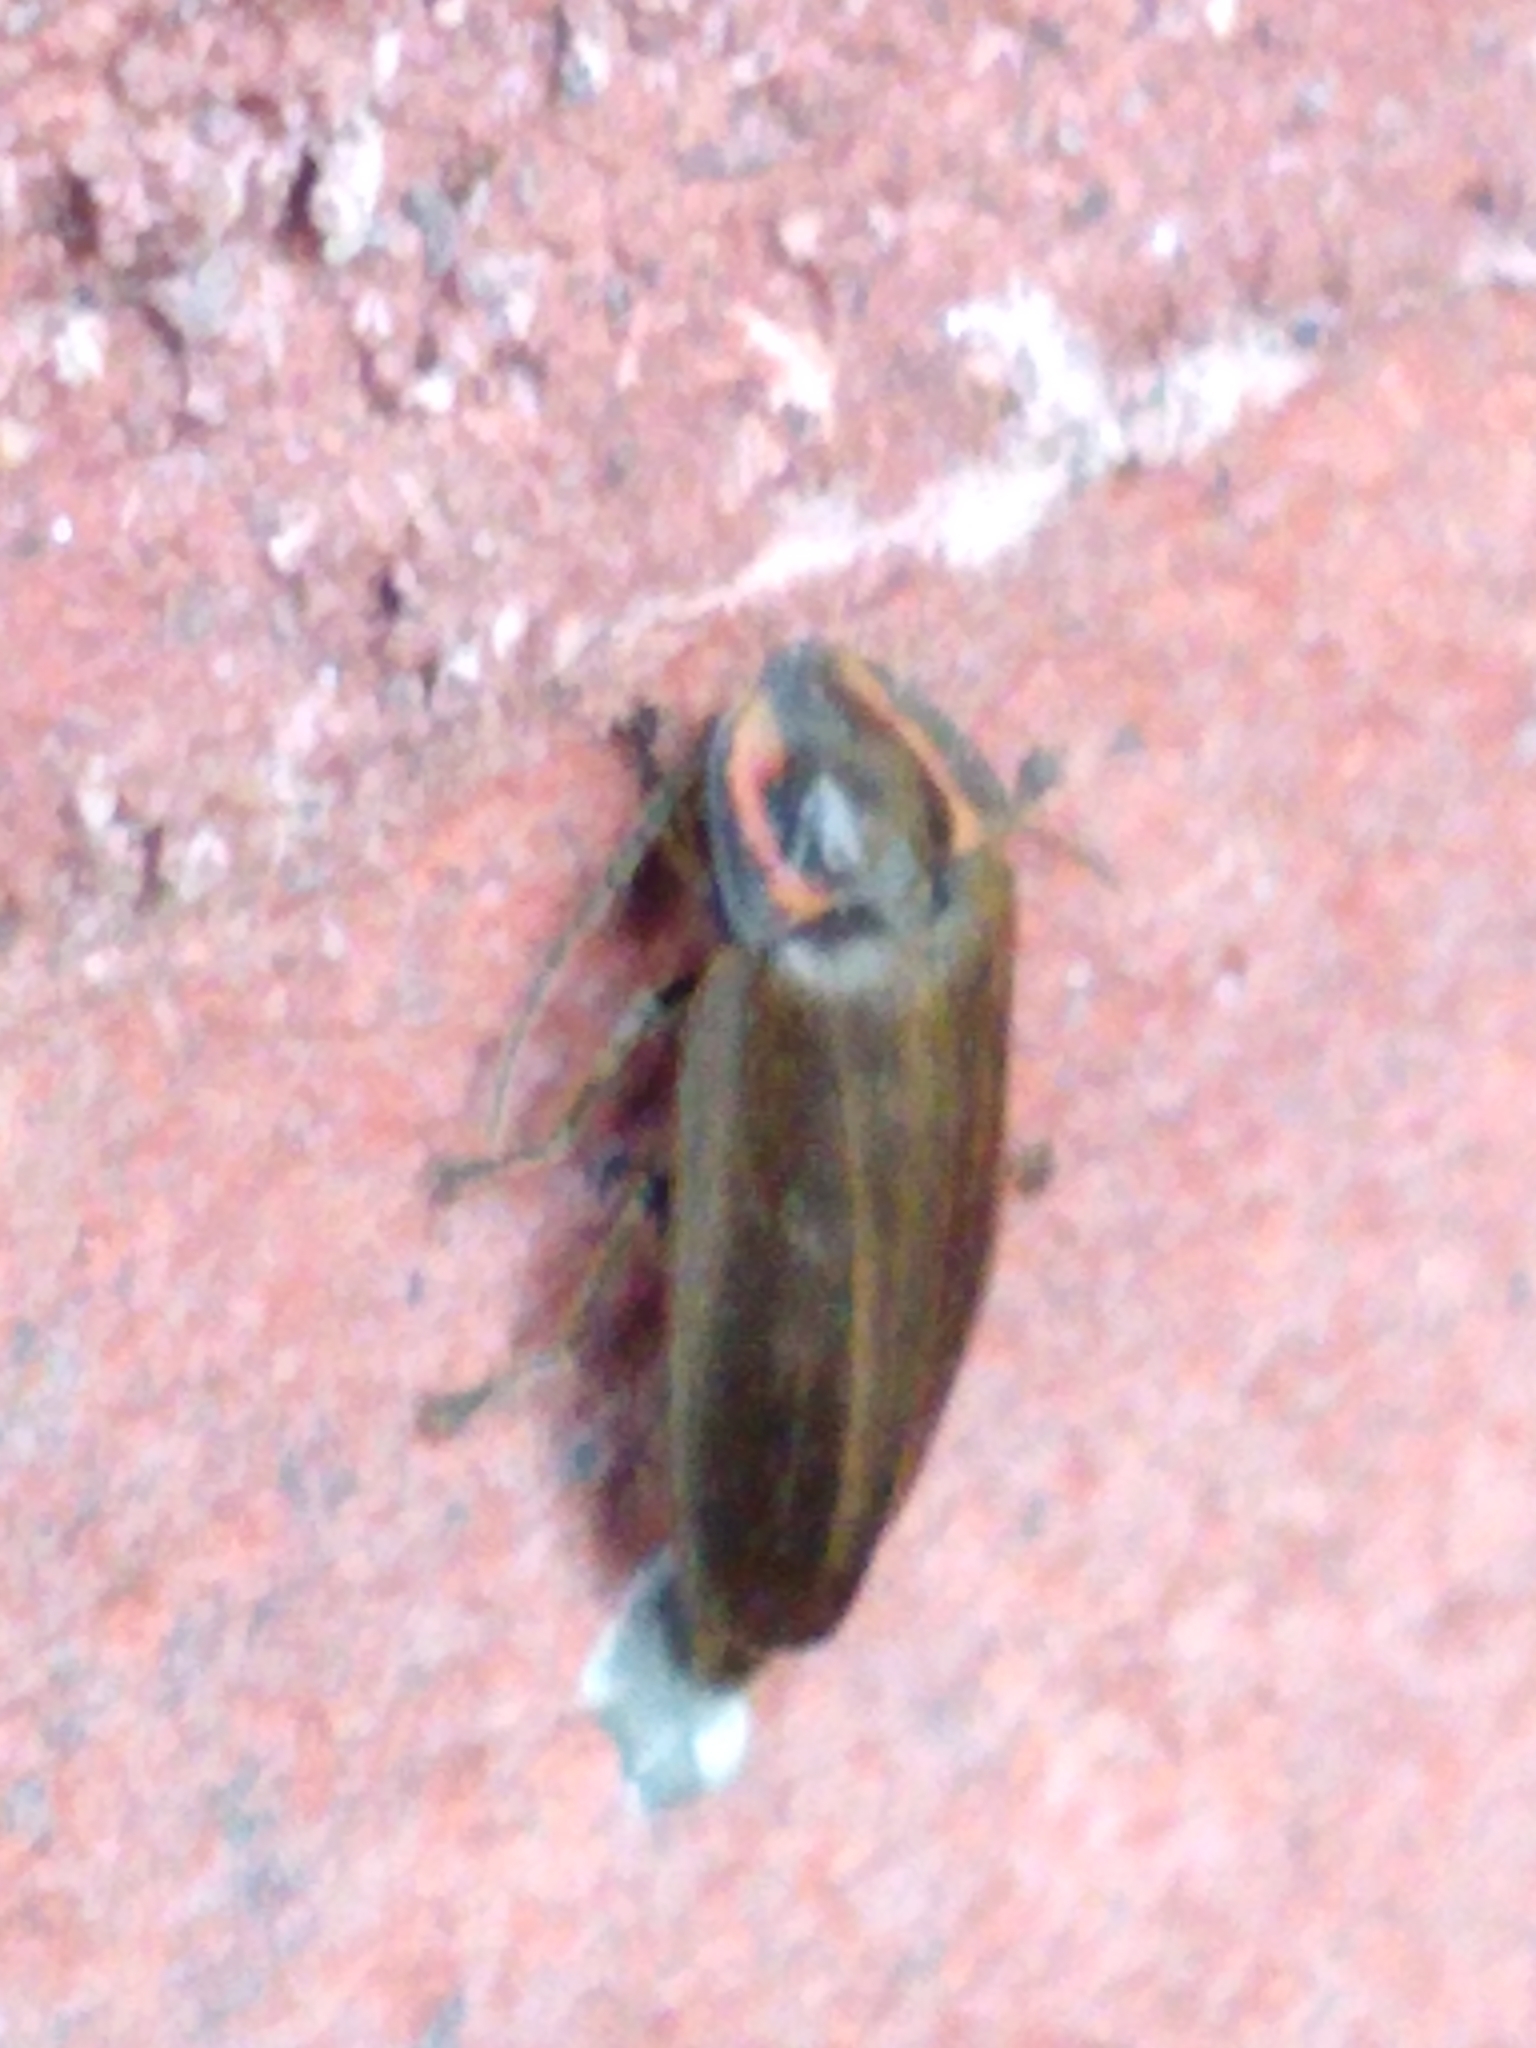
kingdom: Animalia
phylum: Arthropoda
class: Insecta
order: Coleoptera
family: Lampyridae
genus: Photinus
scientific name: Photinus corrusca
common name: Winter firefly
